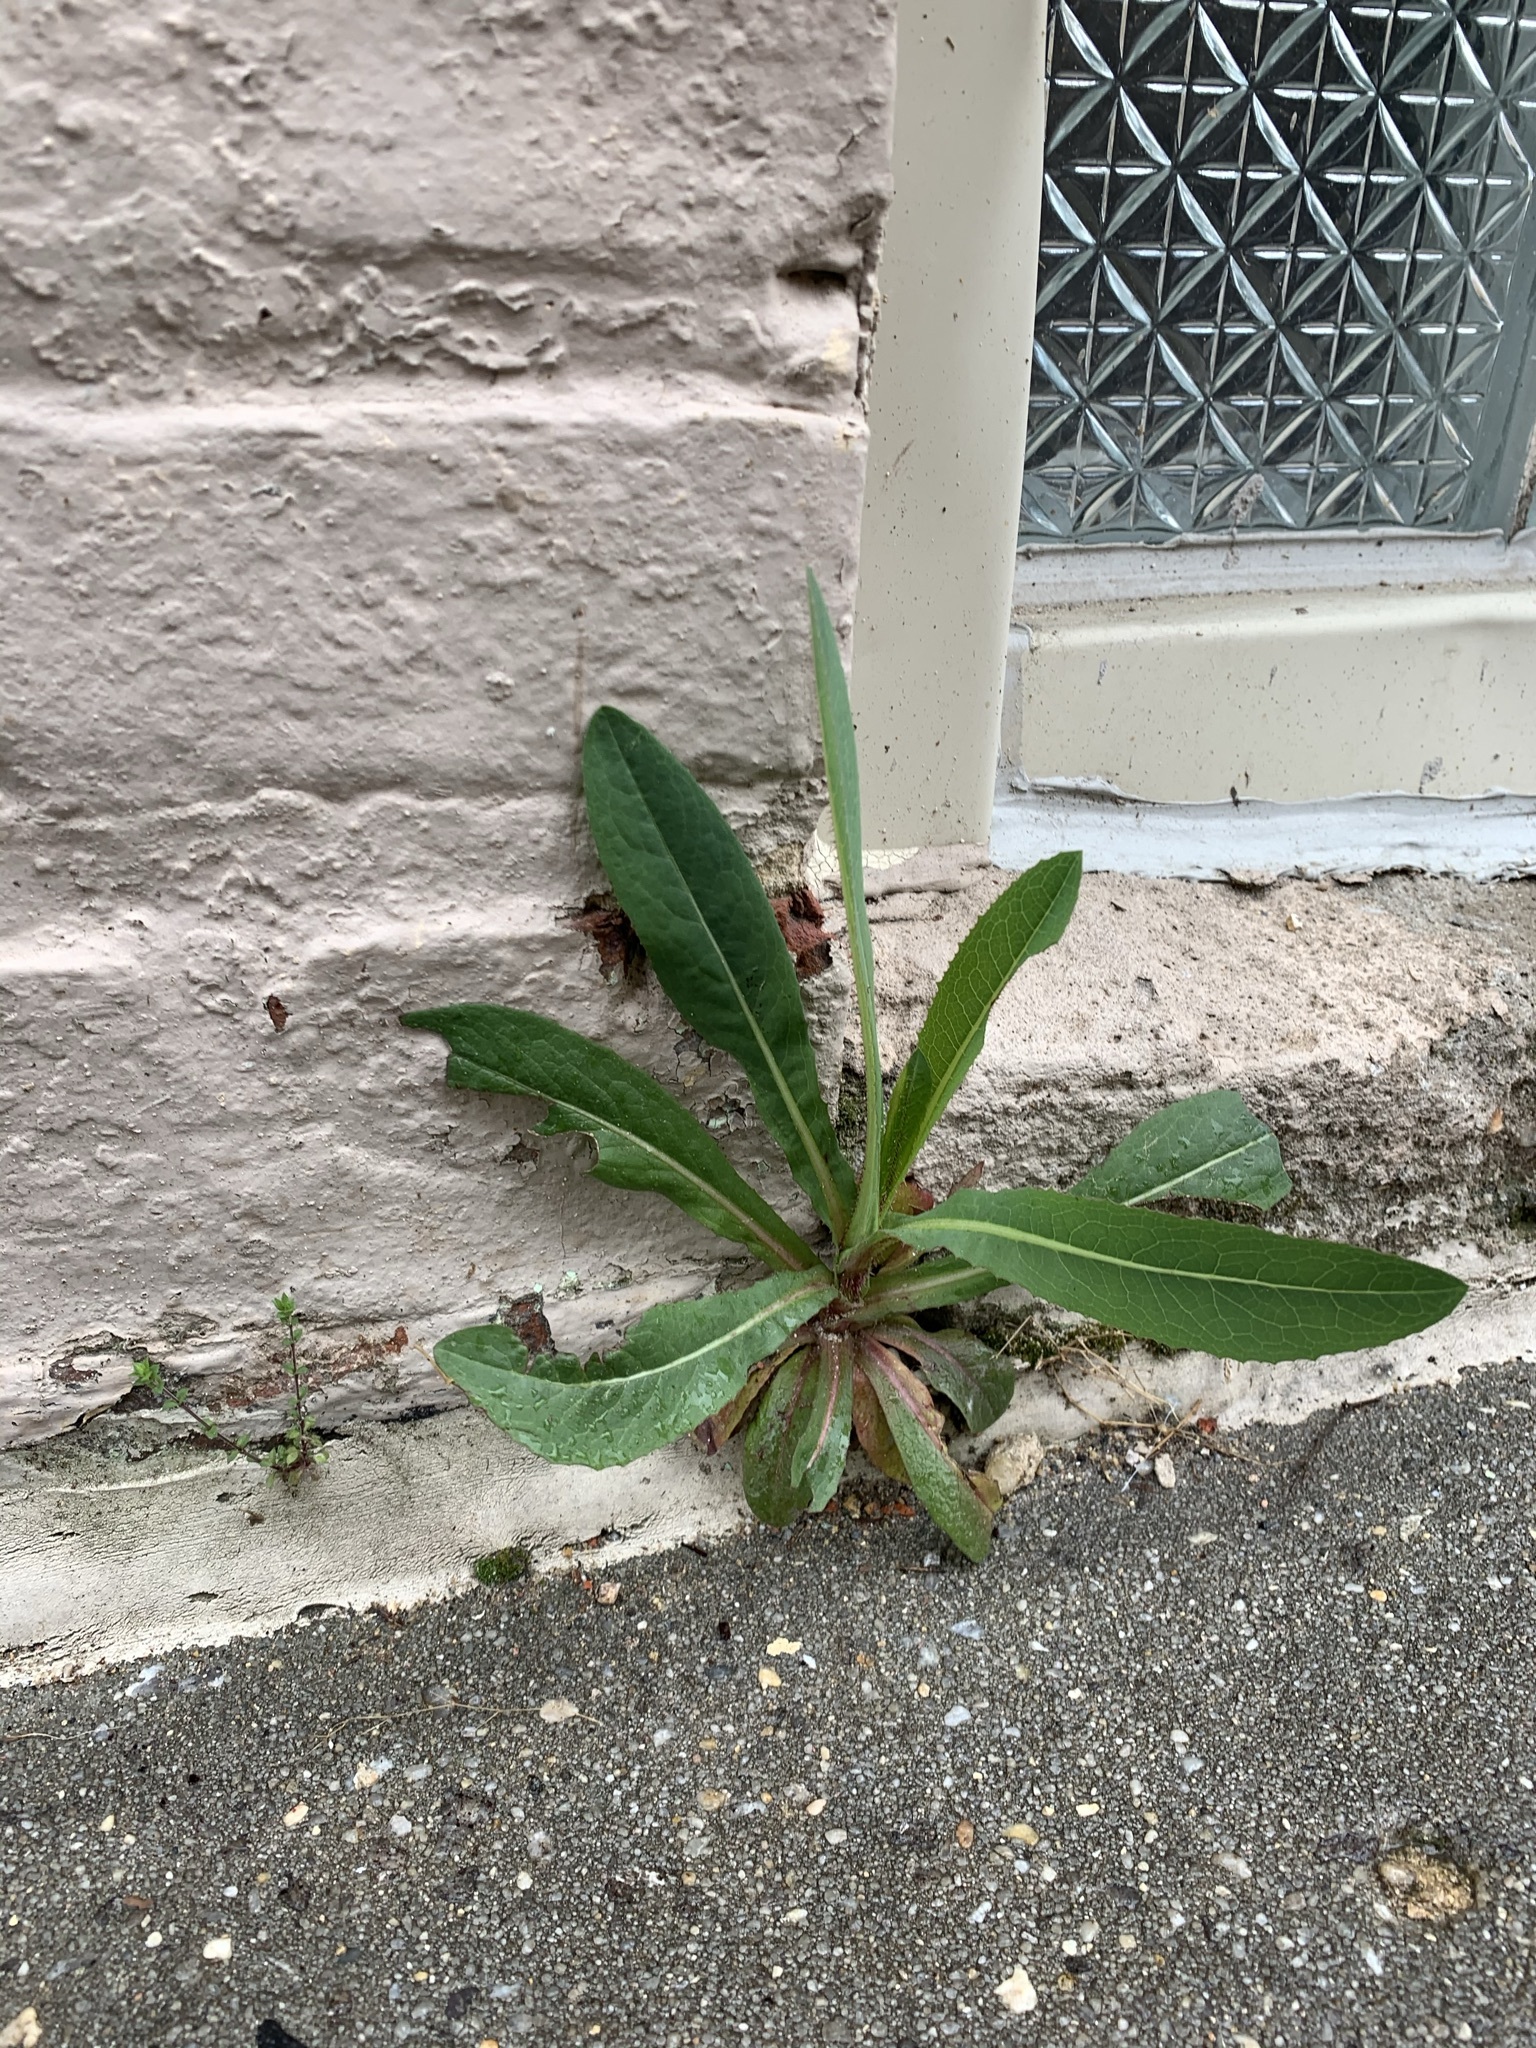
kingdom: Plantae
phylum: Tracheophyta
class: Magnoliopsida
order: Asterales
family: Asteraceae
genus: Lactuca
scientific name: Lactuca serriola
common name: Prickly lettuce
